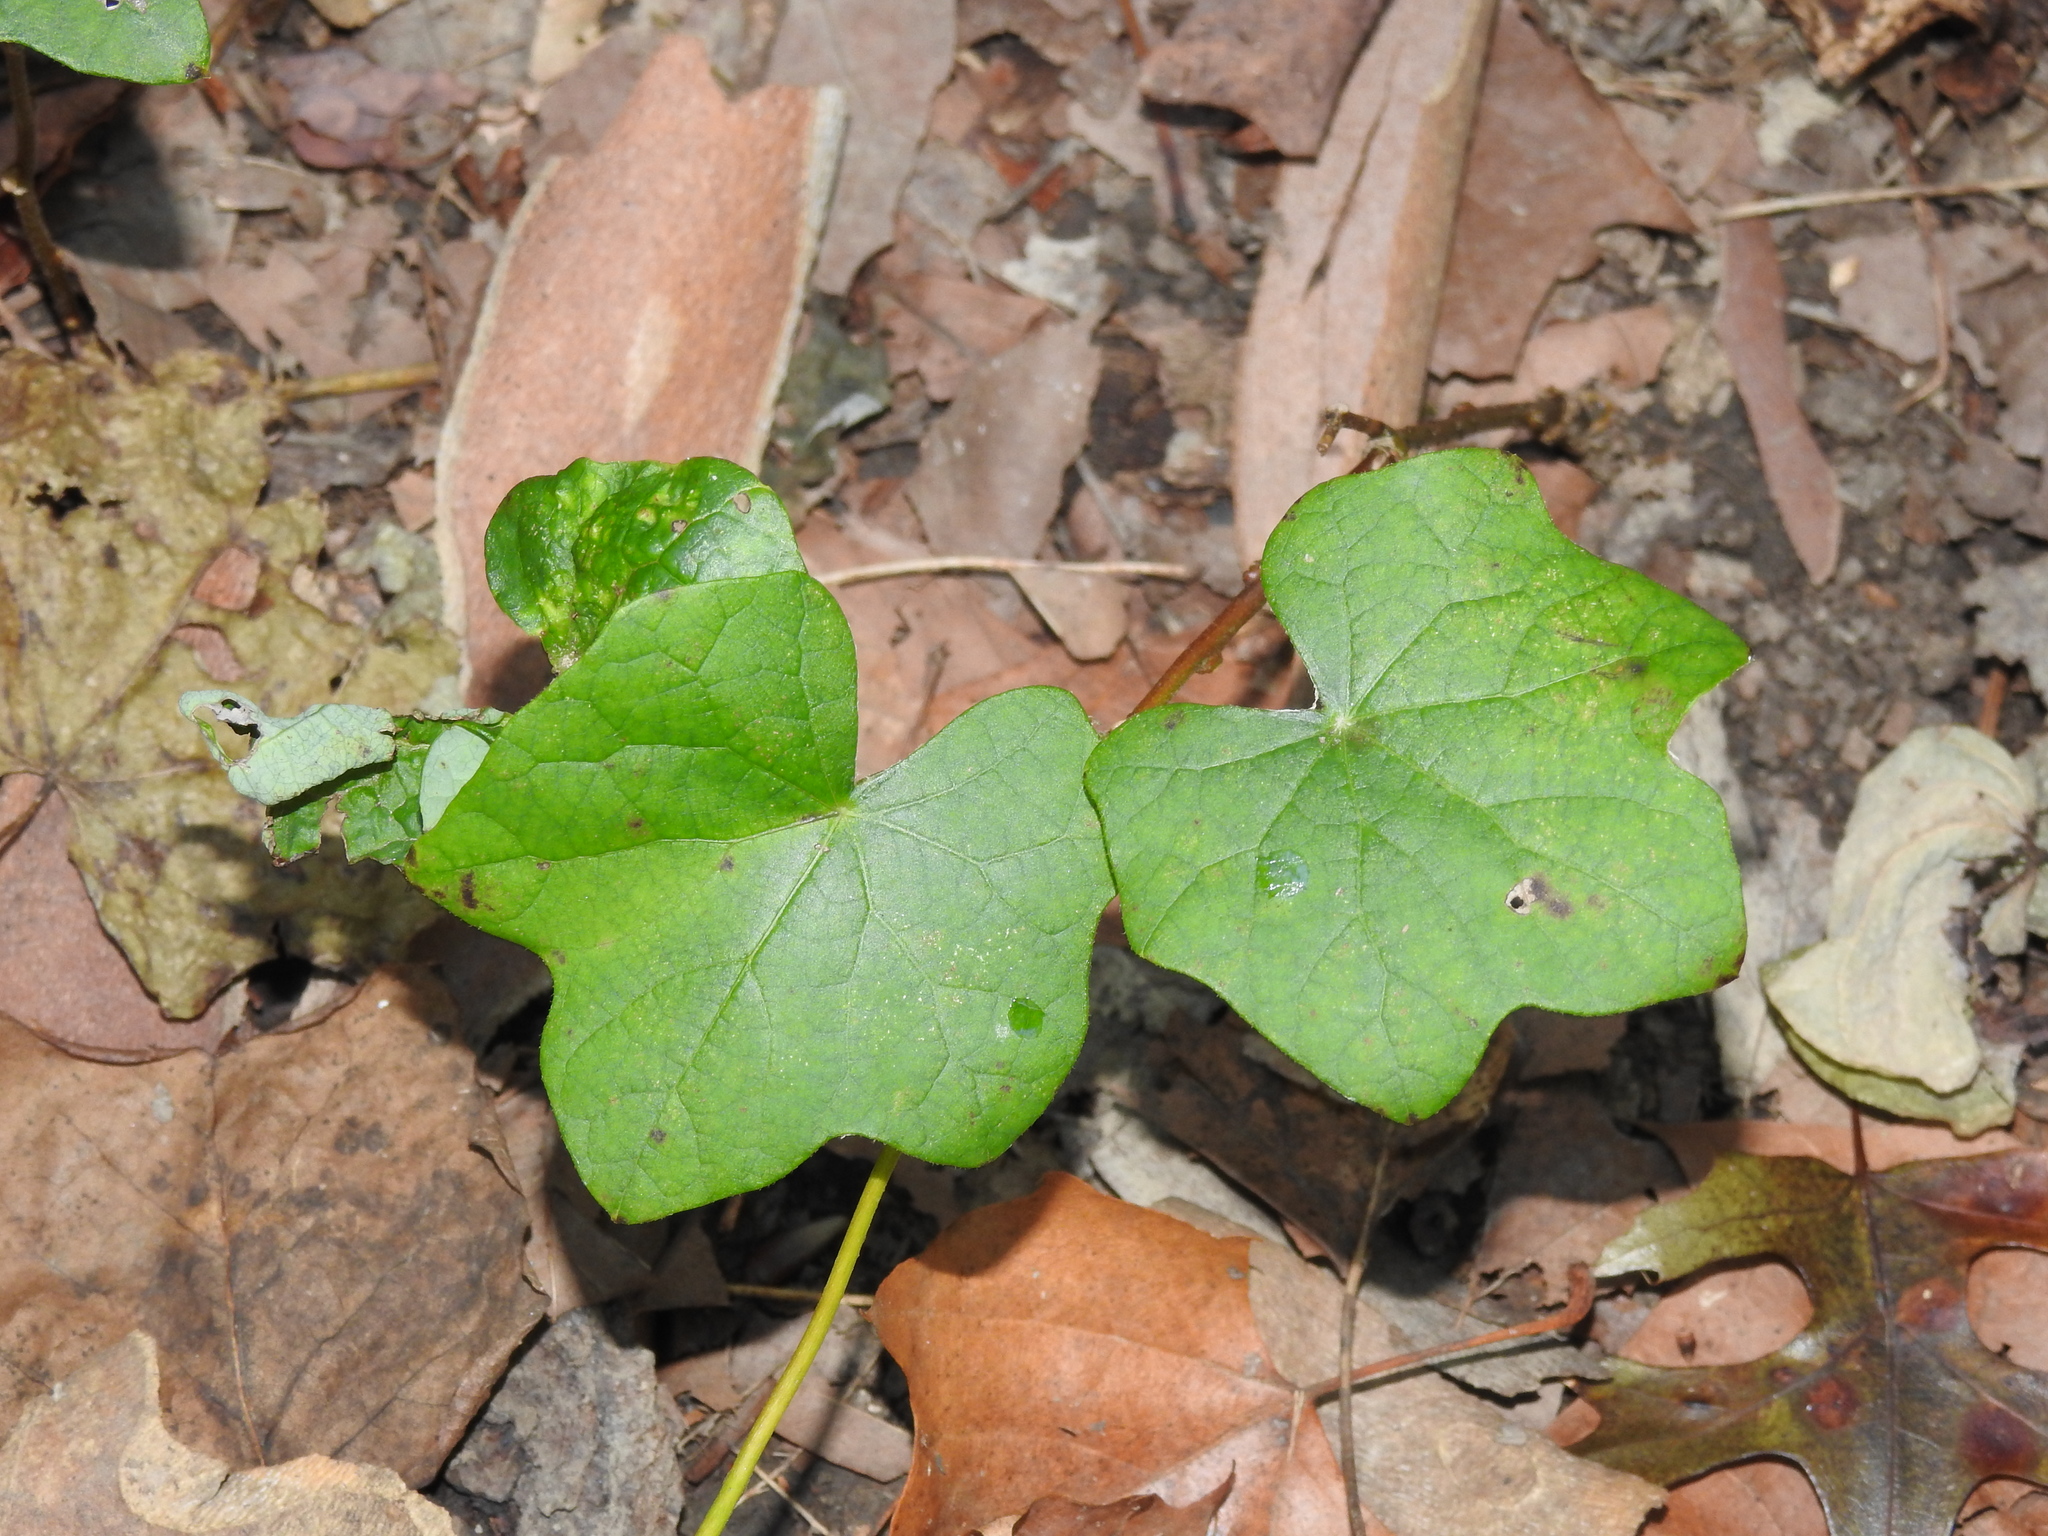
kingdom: Plantae
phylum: Tracheophyta
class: Magnoliopsida
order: Ranunculales
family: Menispermaceae
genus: Menispermum
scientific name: Menispermum canadense
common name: Moonseed
